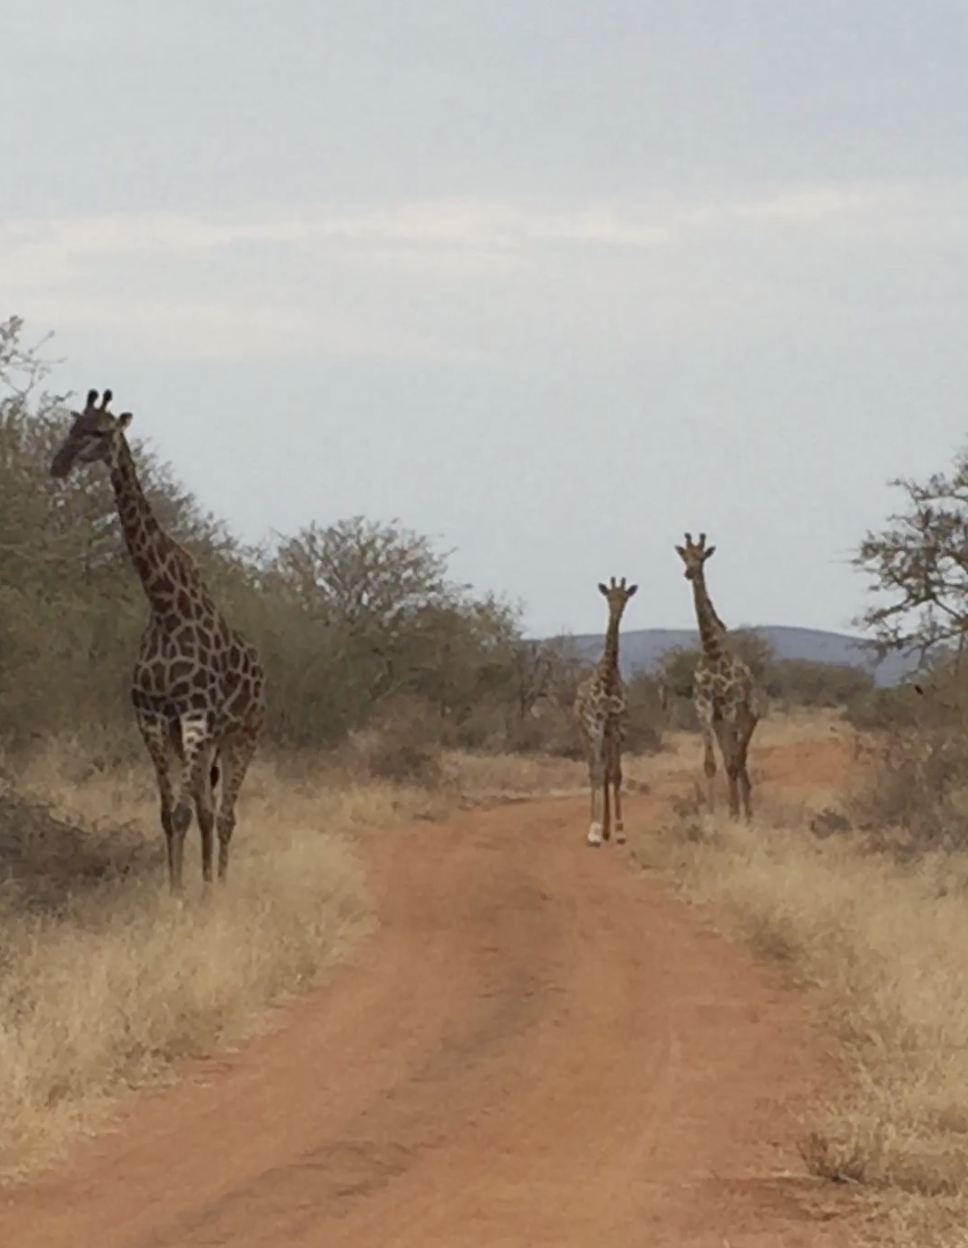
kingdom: Animalia
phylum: Chordata
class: Mammalia
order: Artiodactyla
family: Giraffidae
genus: Giraffa
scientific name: Giraffa giraffa
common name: Southern giraffe
